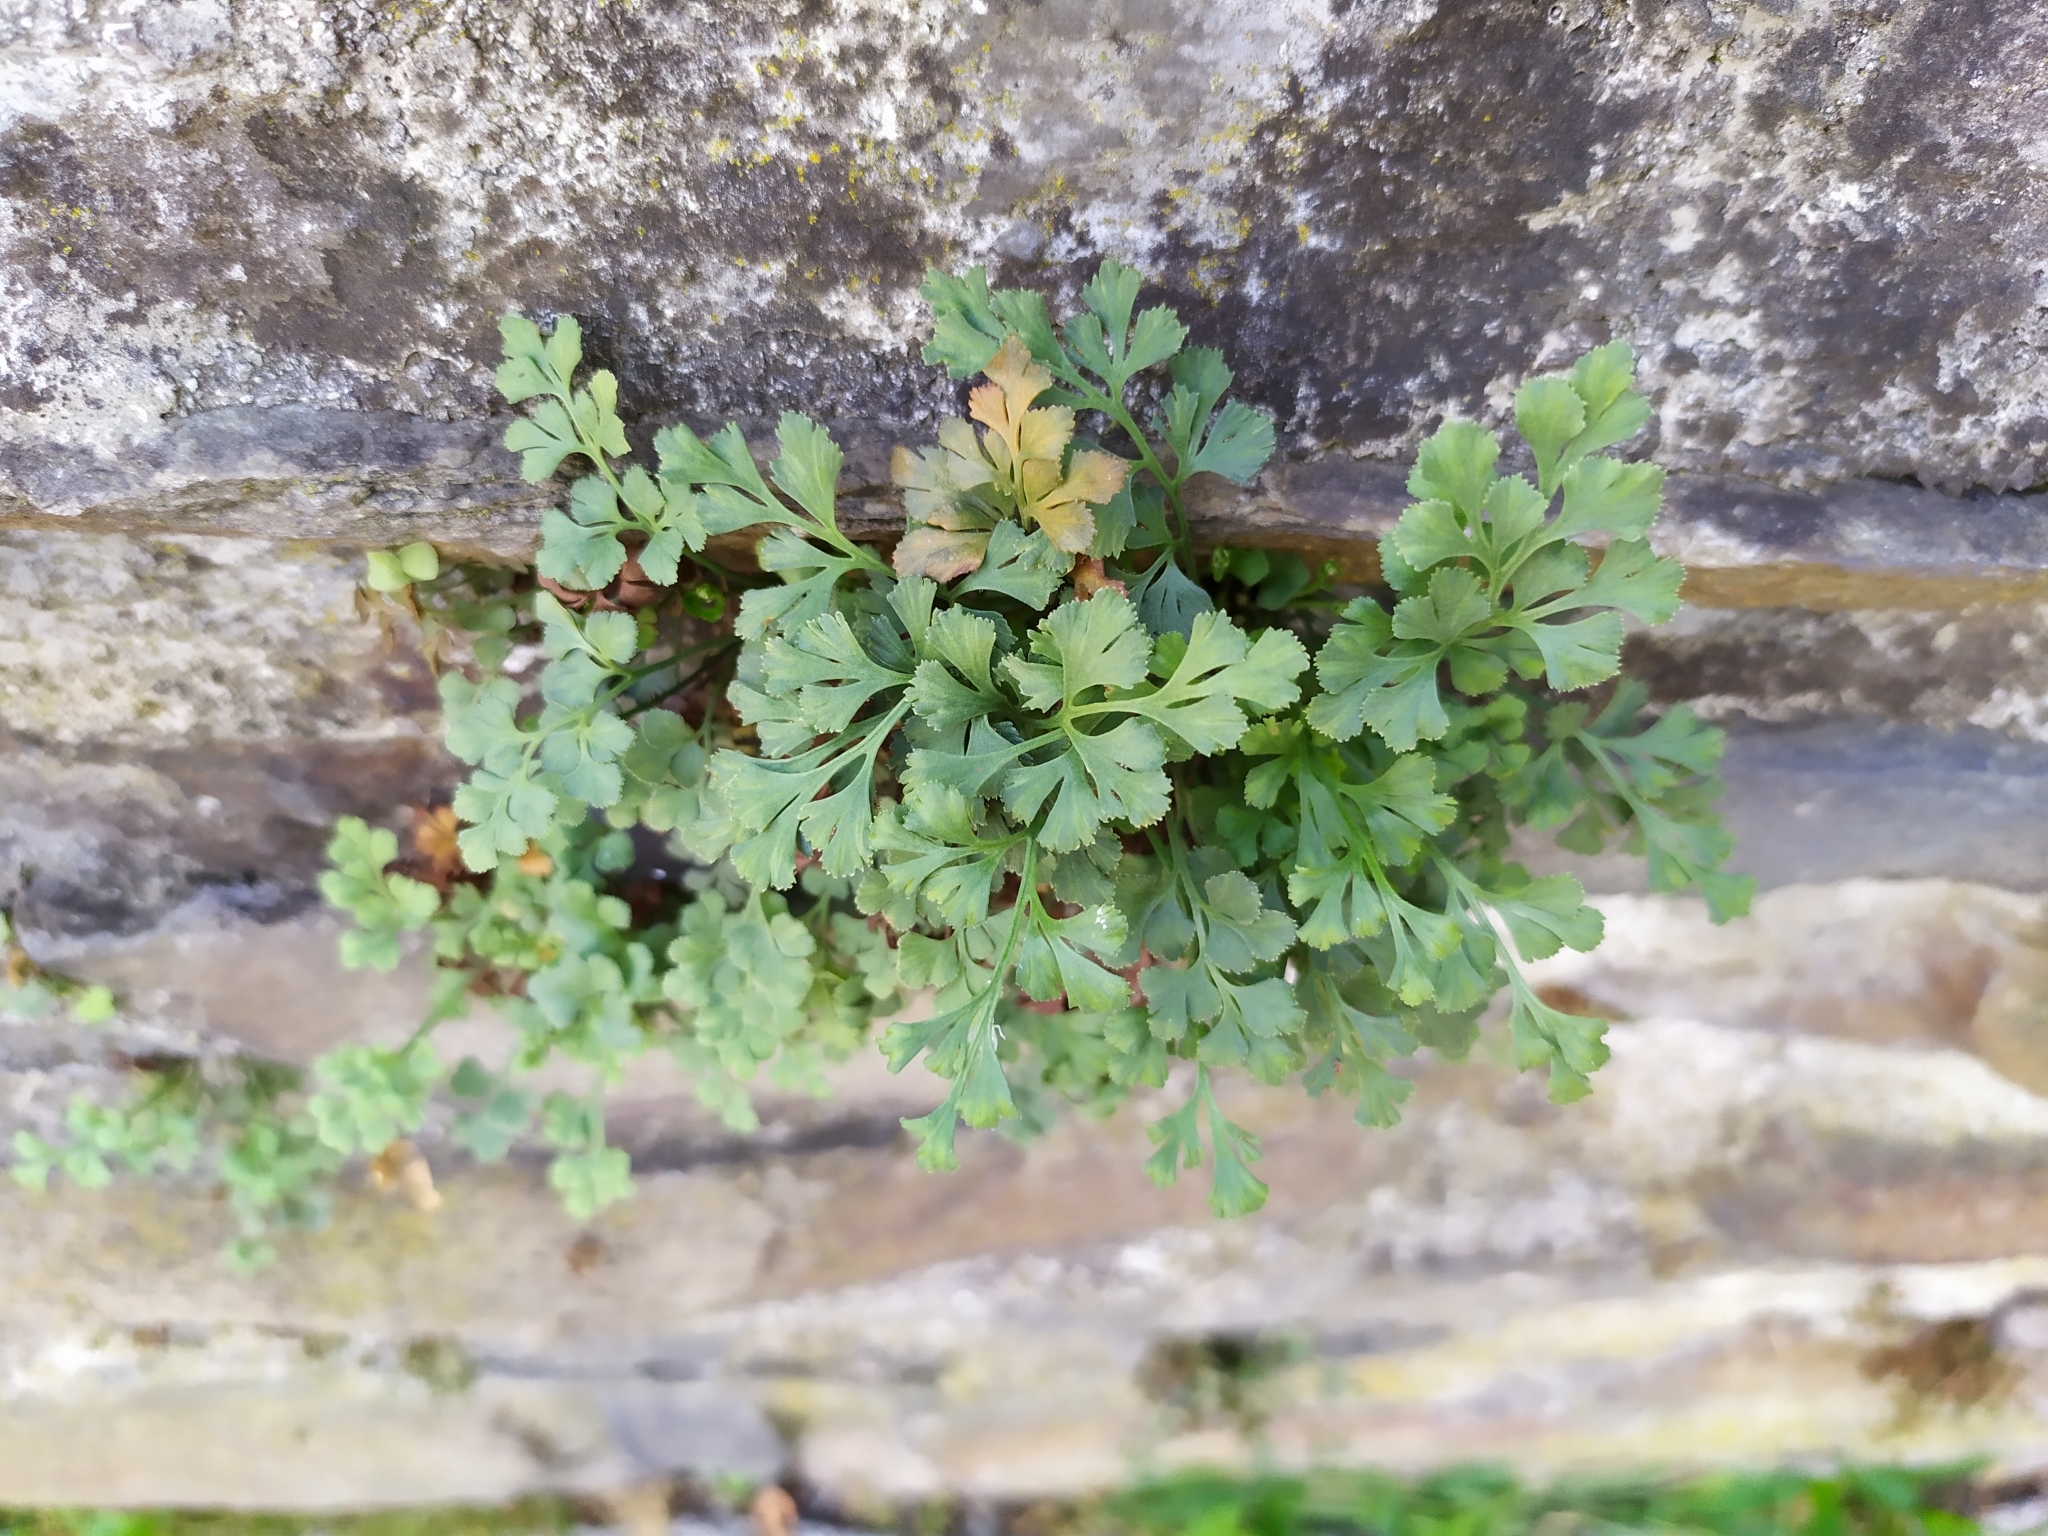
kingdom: Plantae
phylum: Tracheophyta
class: Polypodiopsida
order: Polypodiales
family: Aspleniaceae
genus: Asplenium
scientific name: Asplenium ruta-muraria
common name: Wall-rue
